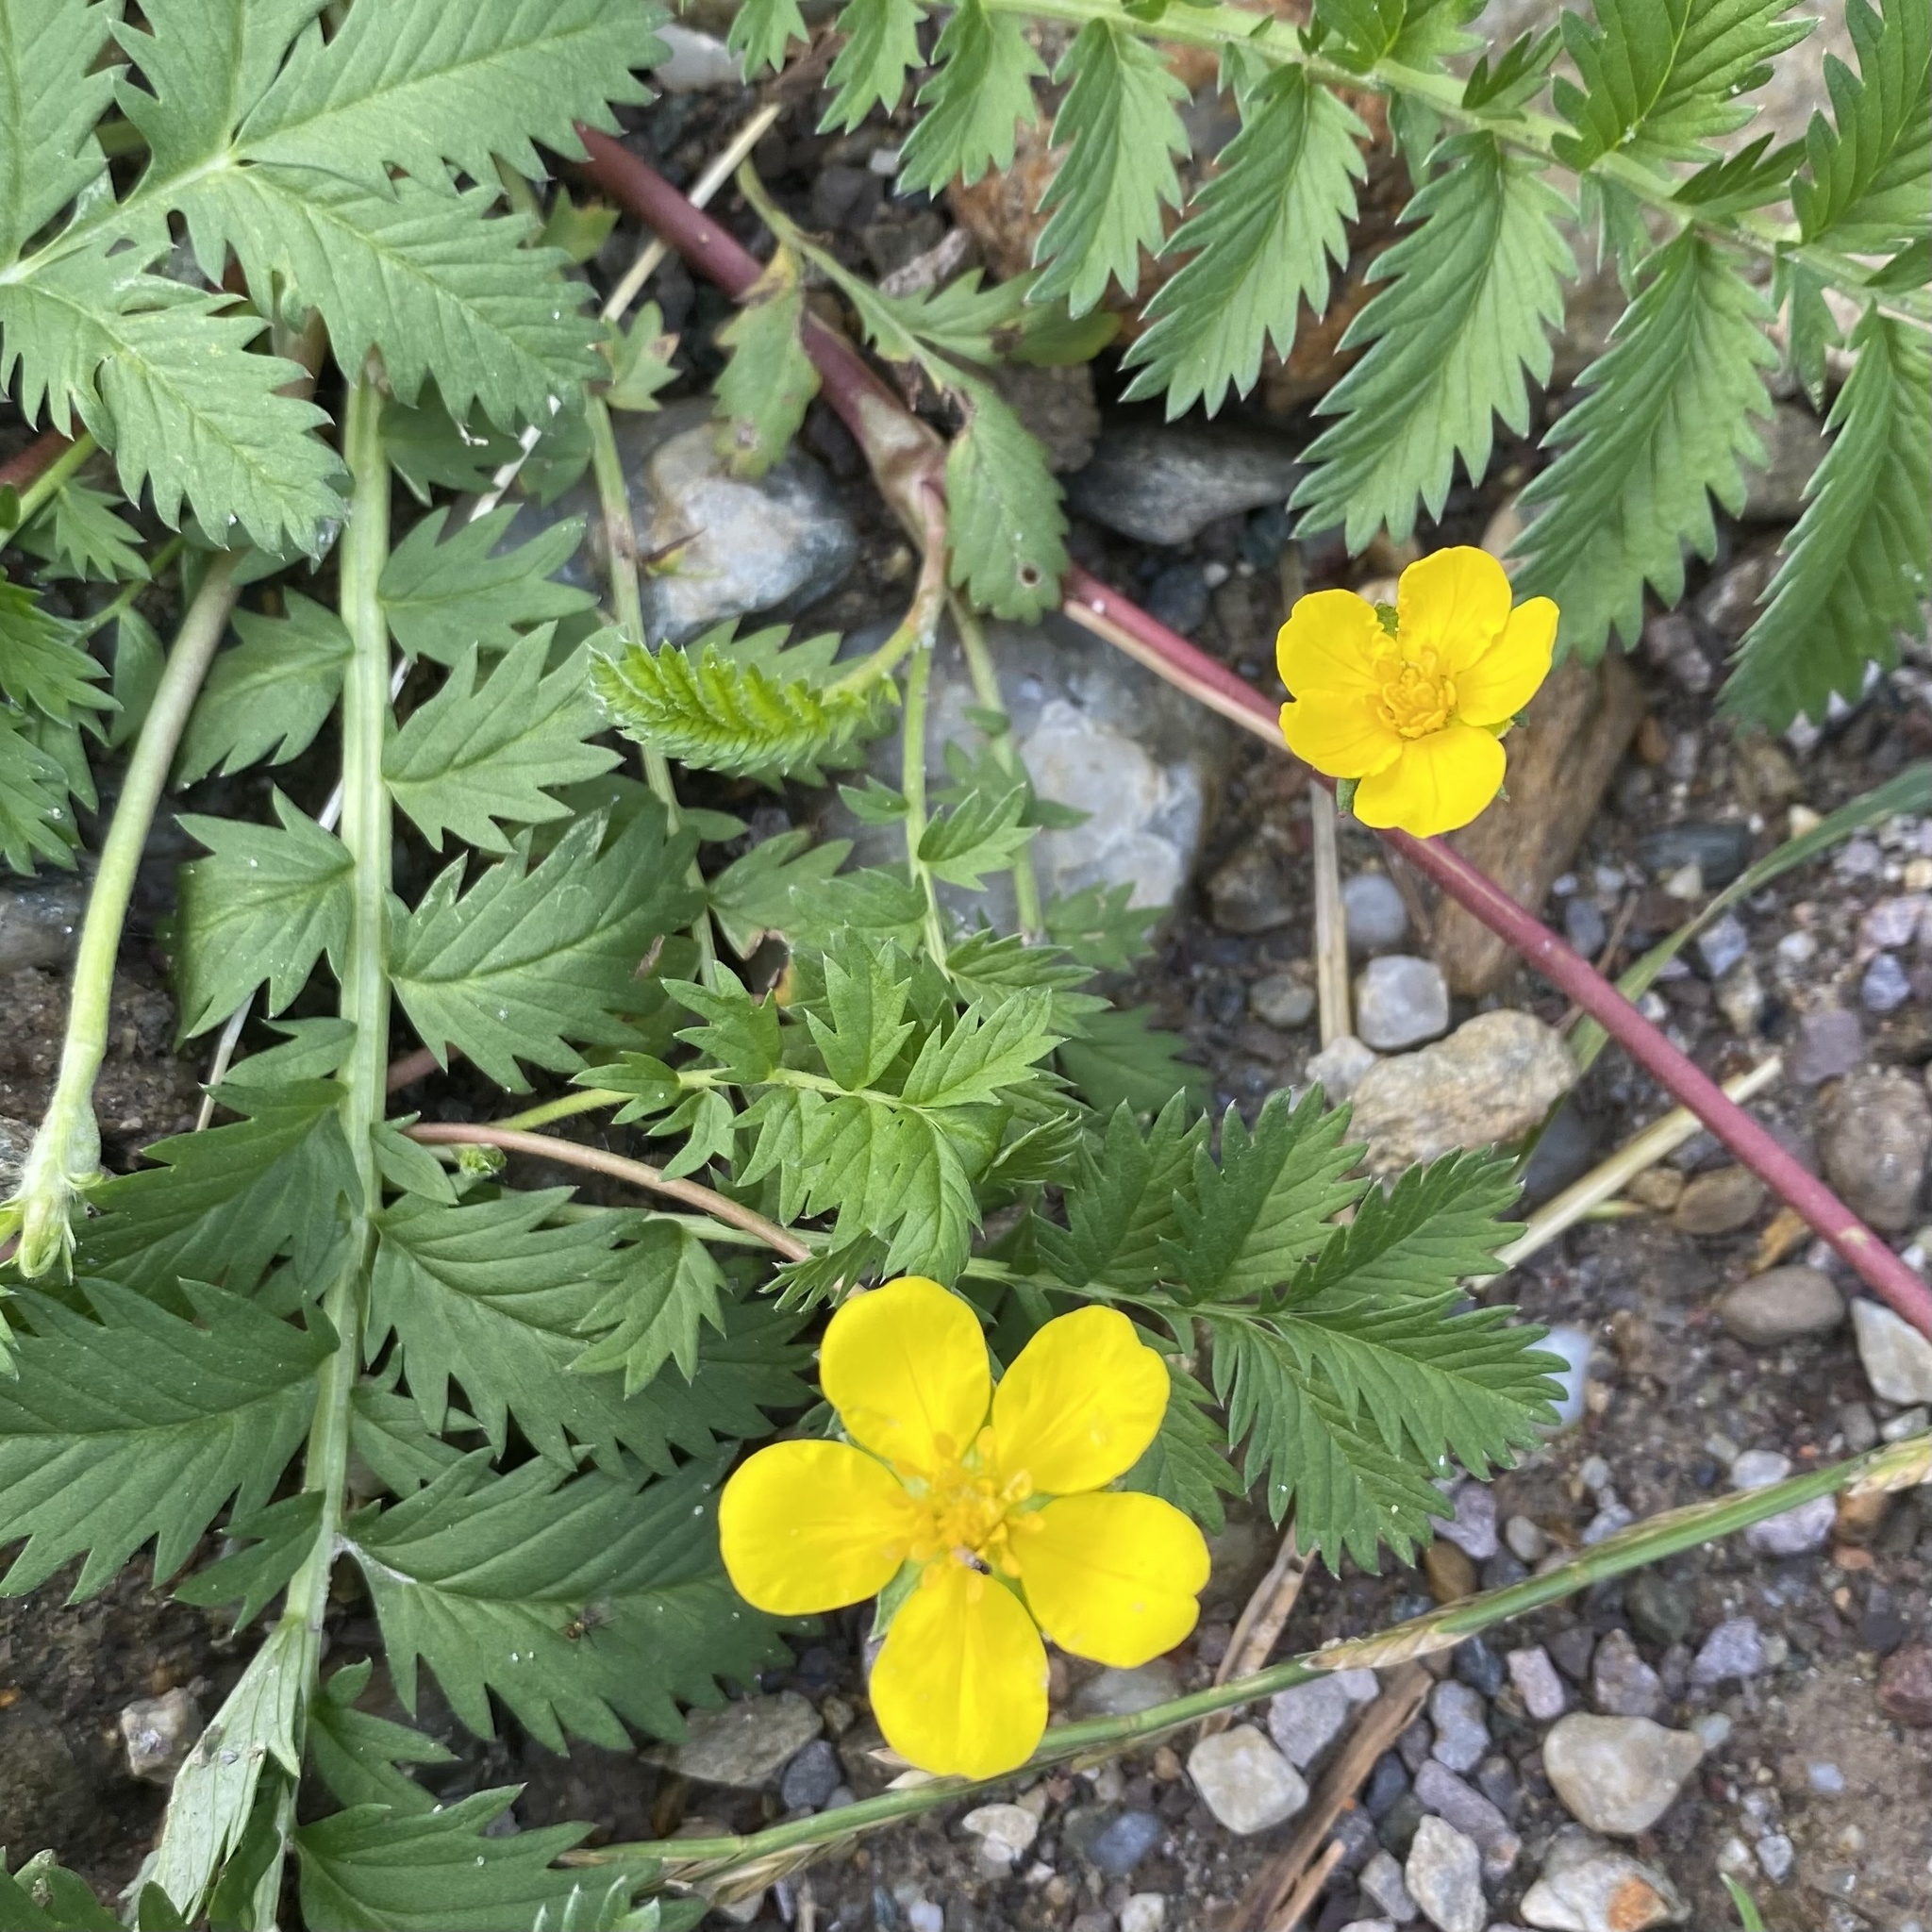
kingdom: Plantae
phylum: Tracheophyta
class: Magnoliopsida
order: Rosales
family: Rosaceae
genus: Argentina
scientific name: Argentina anserina
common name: Common silverweed
